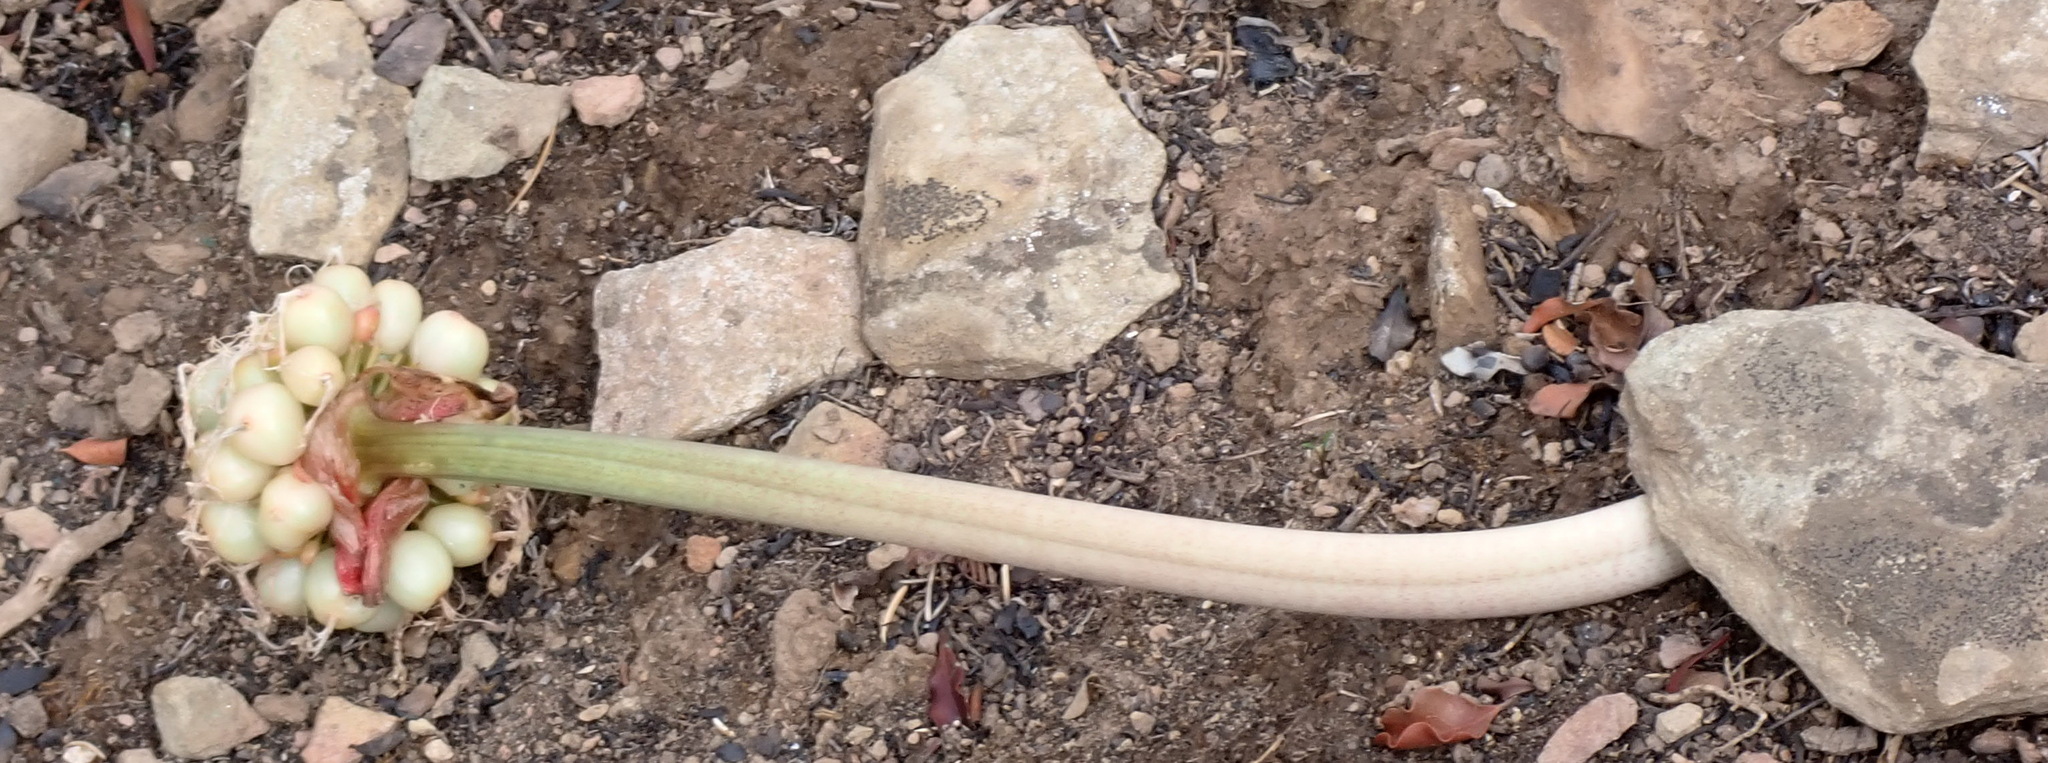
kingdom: Plantae
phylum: Tracheophyta
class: Liliopsida
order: Asparagales
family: Amaryllidaceae
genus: Haemanthus
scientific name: Haemanthus coccineus
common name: Cape-tulip
